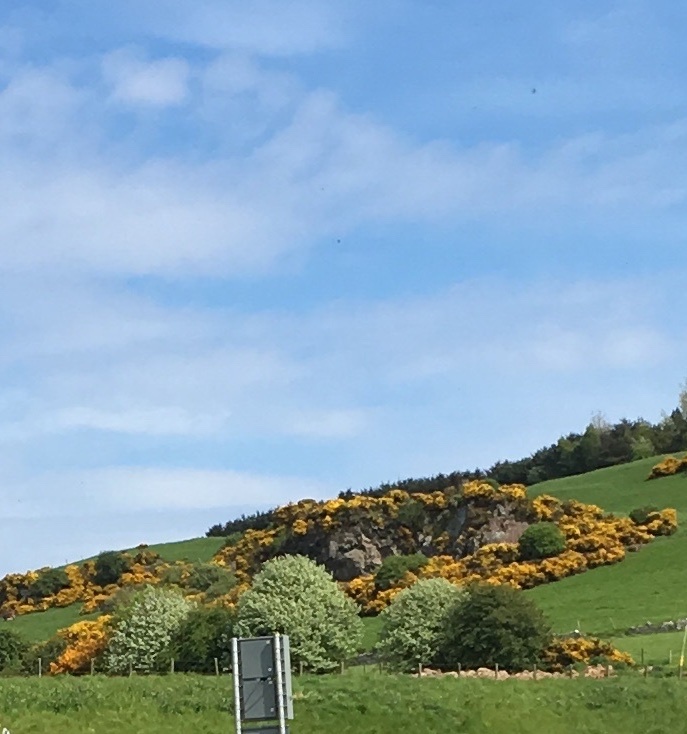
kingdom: Plantae
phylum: Tracheophyta
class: Magnoliopsida
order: Fabales
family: Fabaceae
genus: Ulex
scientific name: Ulex europaeus
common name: Common gorse
